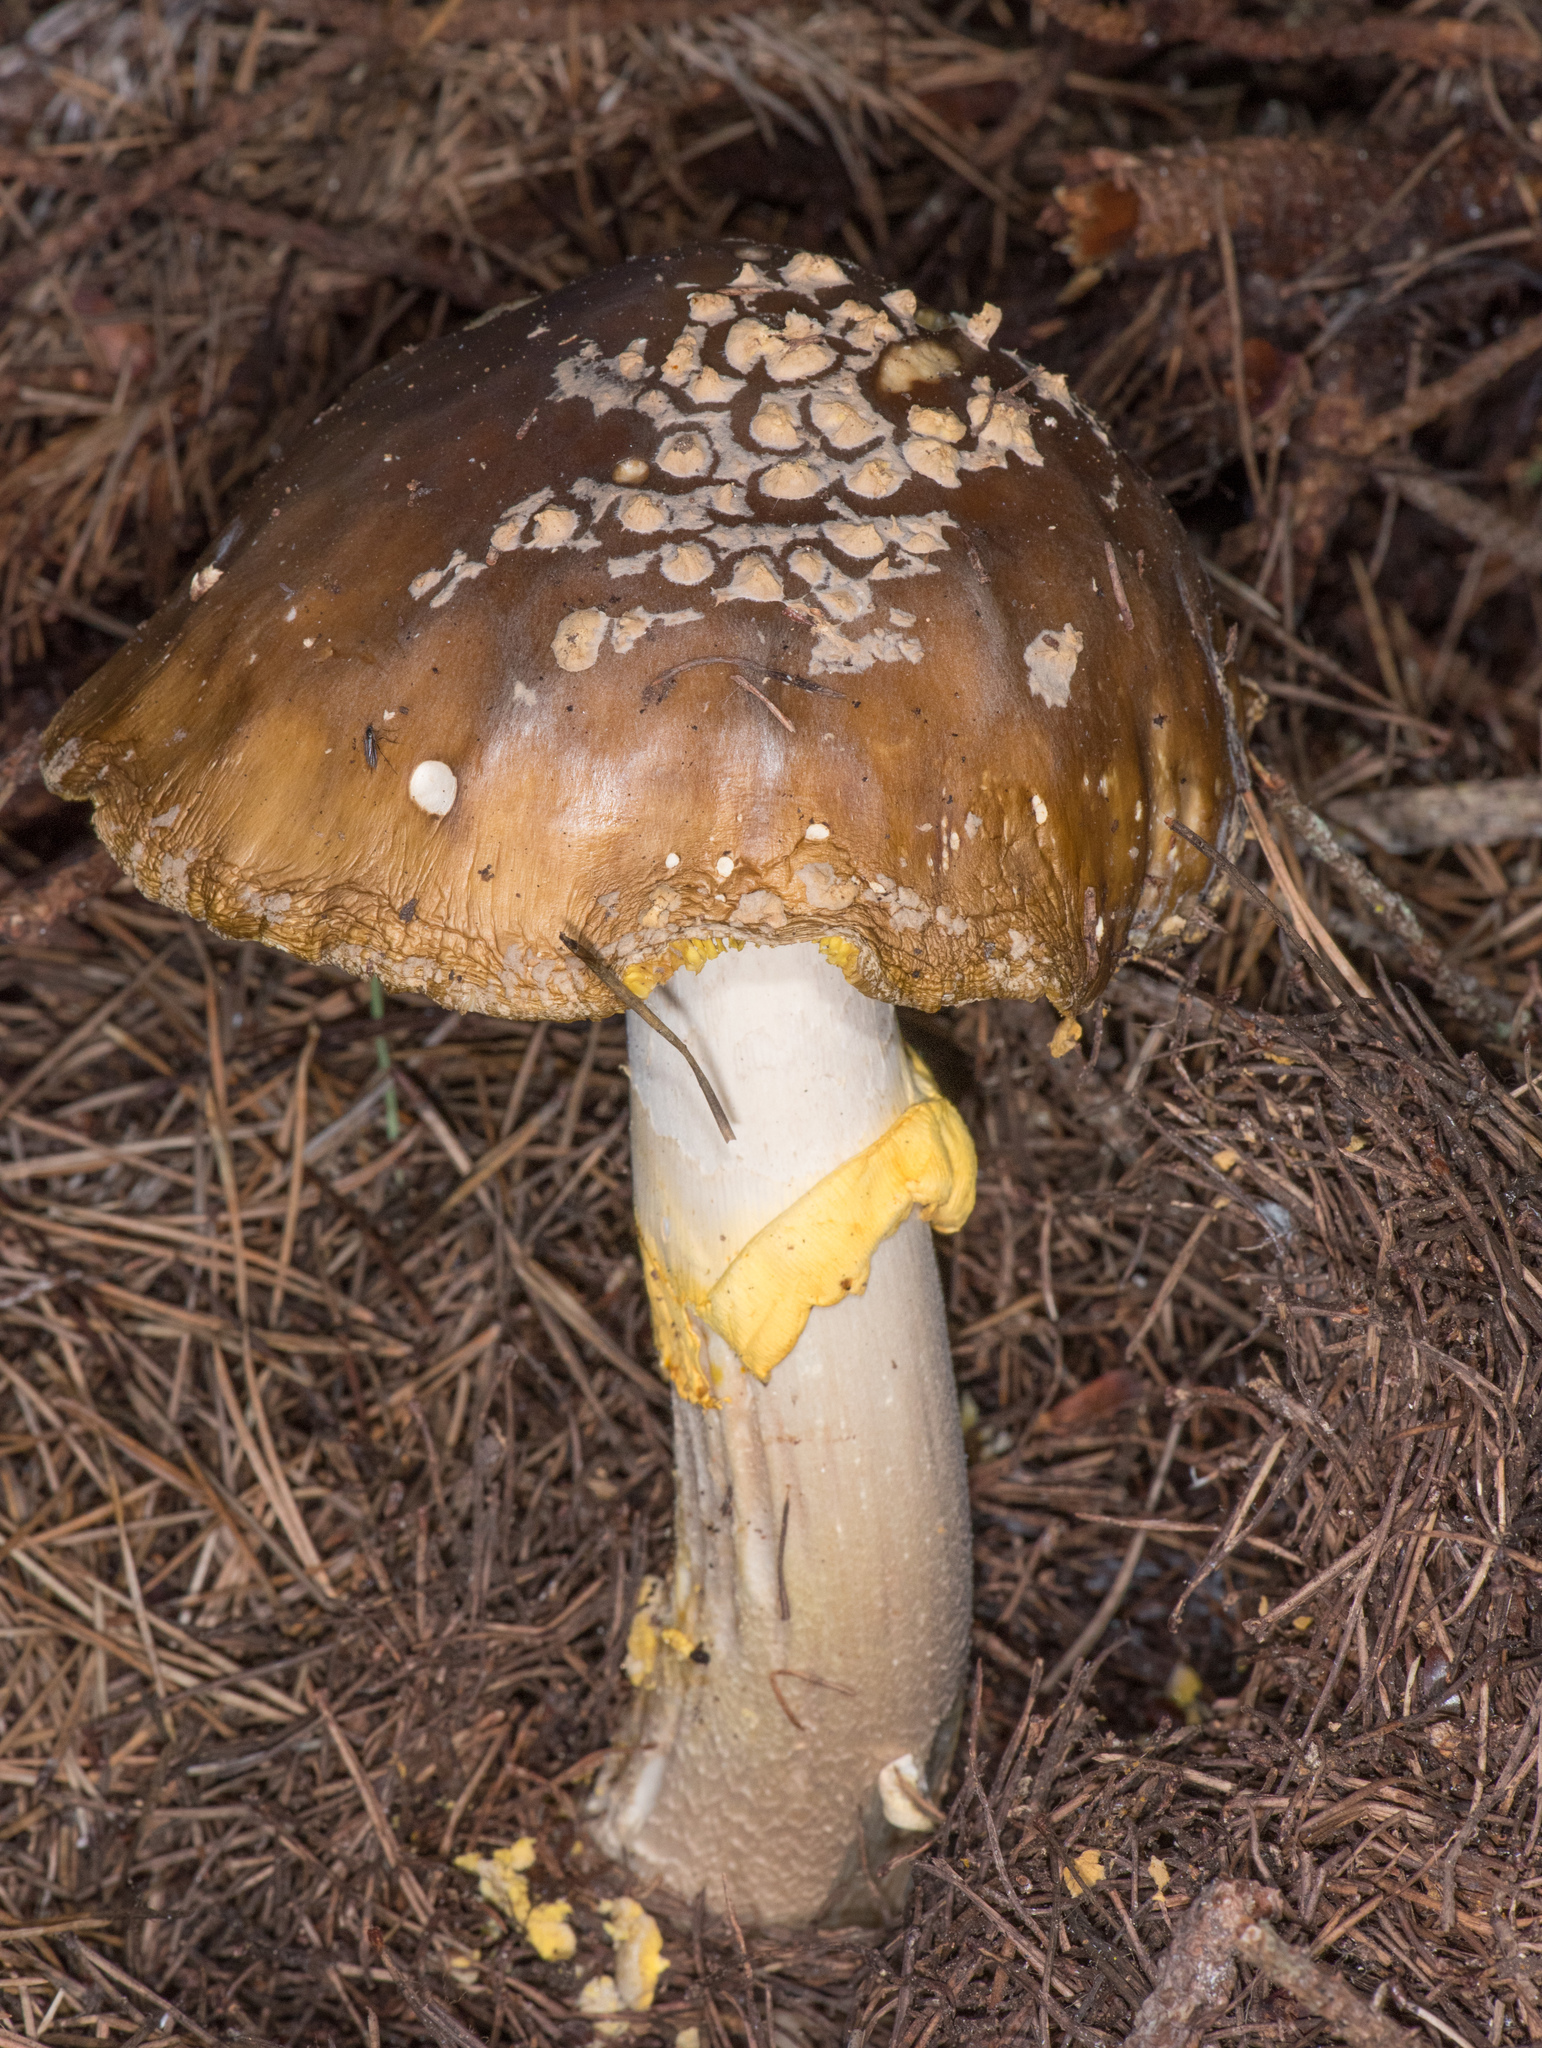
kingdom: Fungi
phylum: Basidiomycota
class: Agaricomycetes
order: Agaricales
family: Amanitaceae
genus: Amanita
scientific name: Amanita augusta
